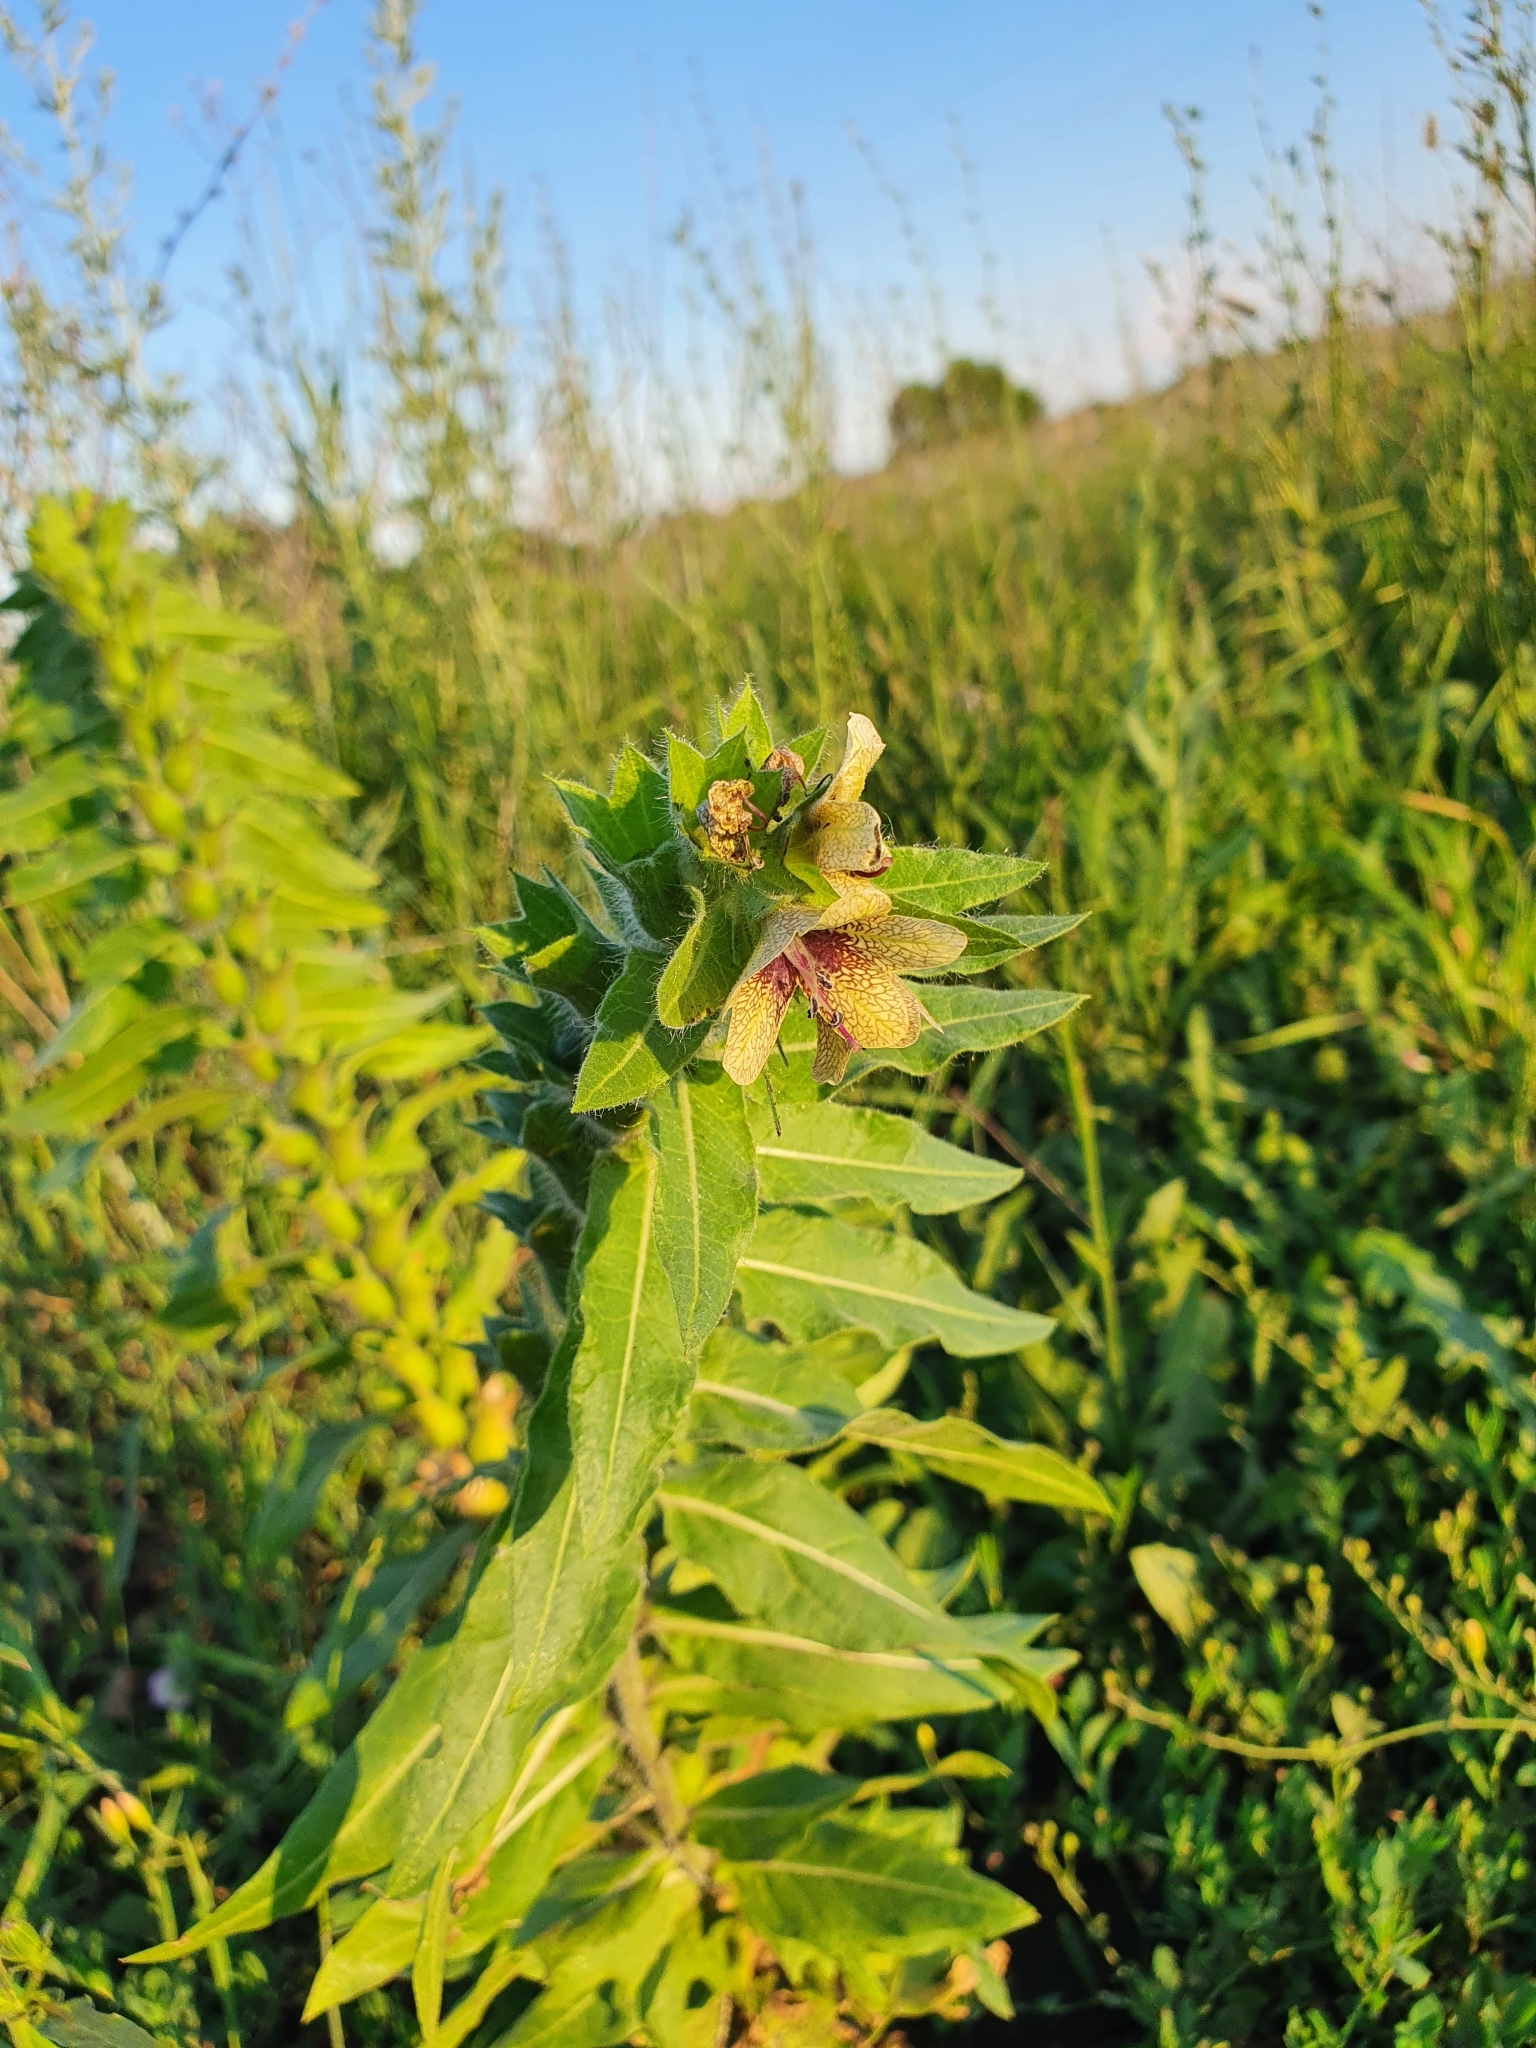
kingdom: Plantae
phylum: Tracheophyta
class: Magnoliopsida
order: Solanales
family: Solanaceae
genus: Hyoscyamus
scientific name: Hyoscyamus niger
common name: Henbane
